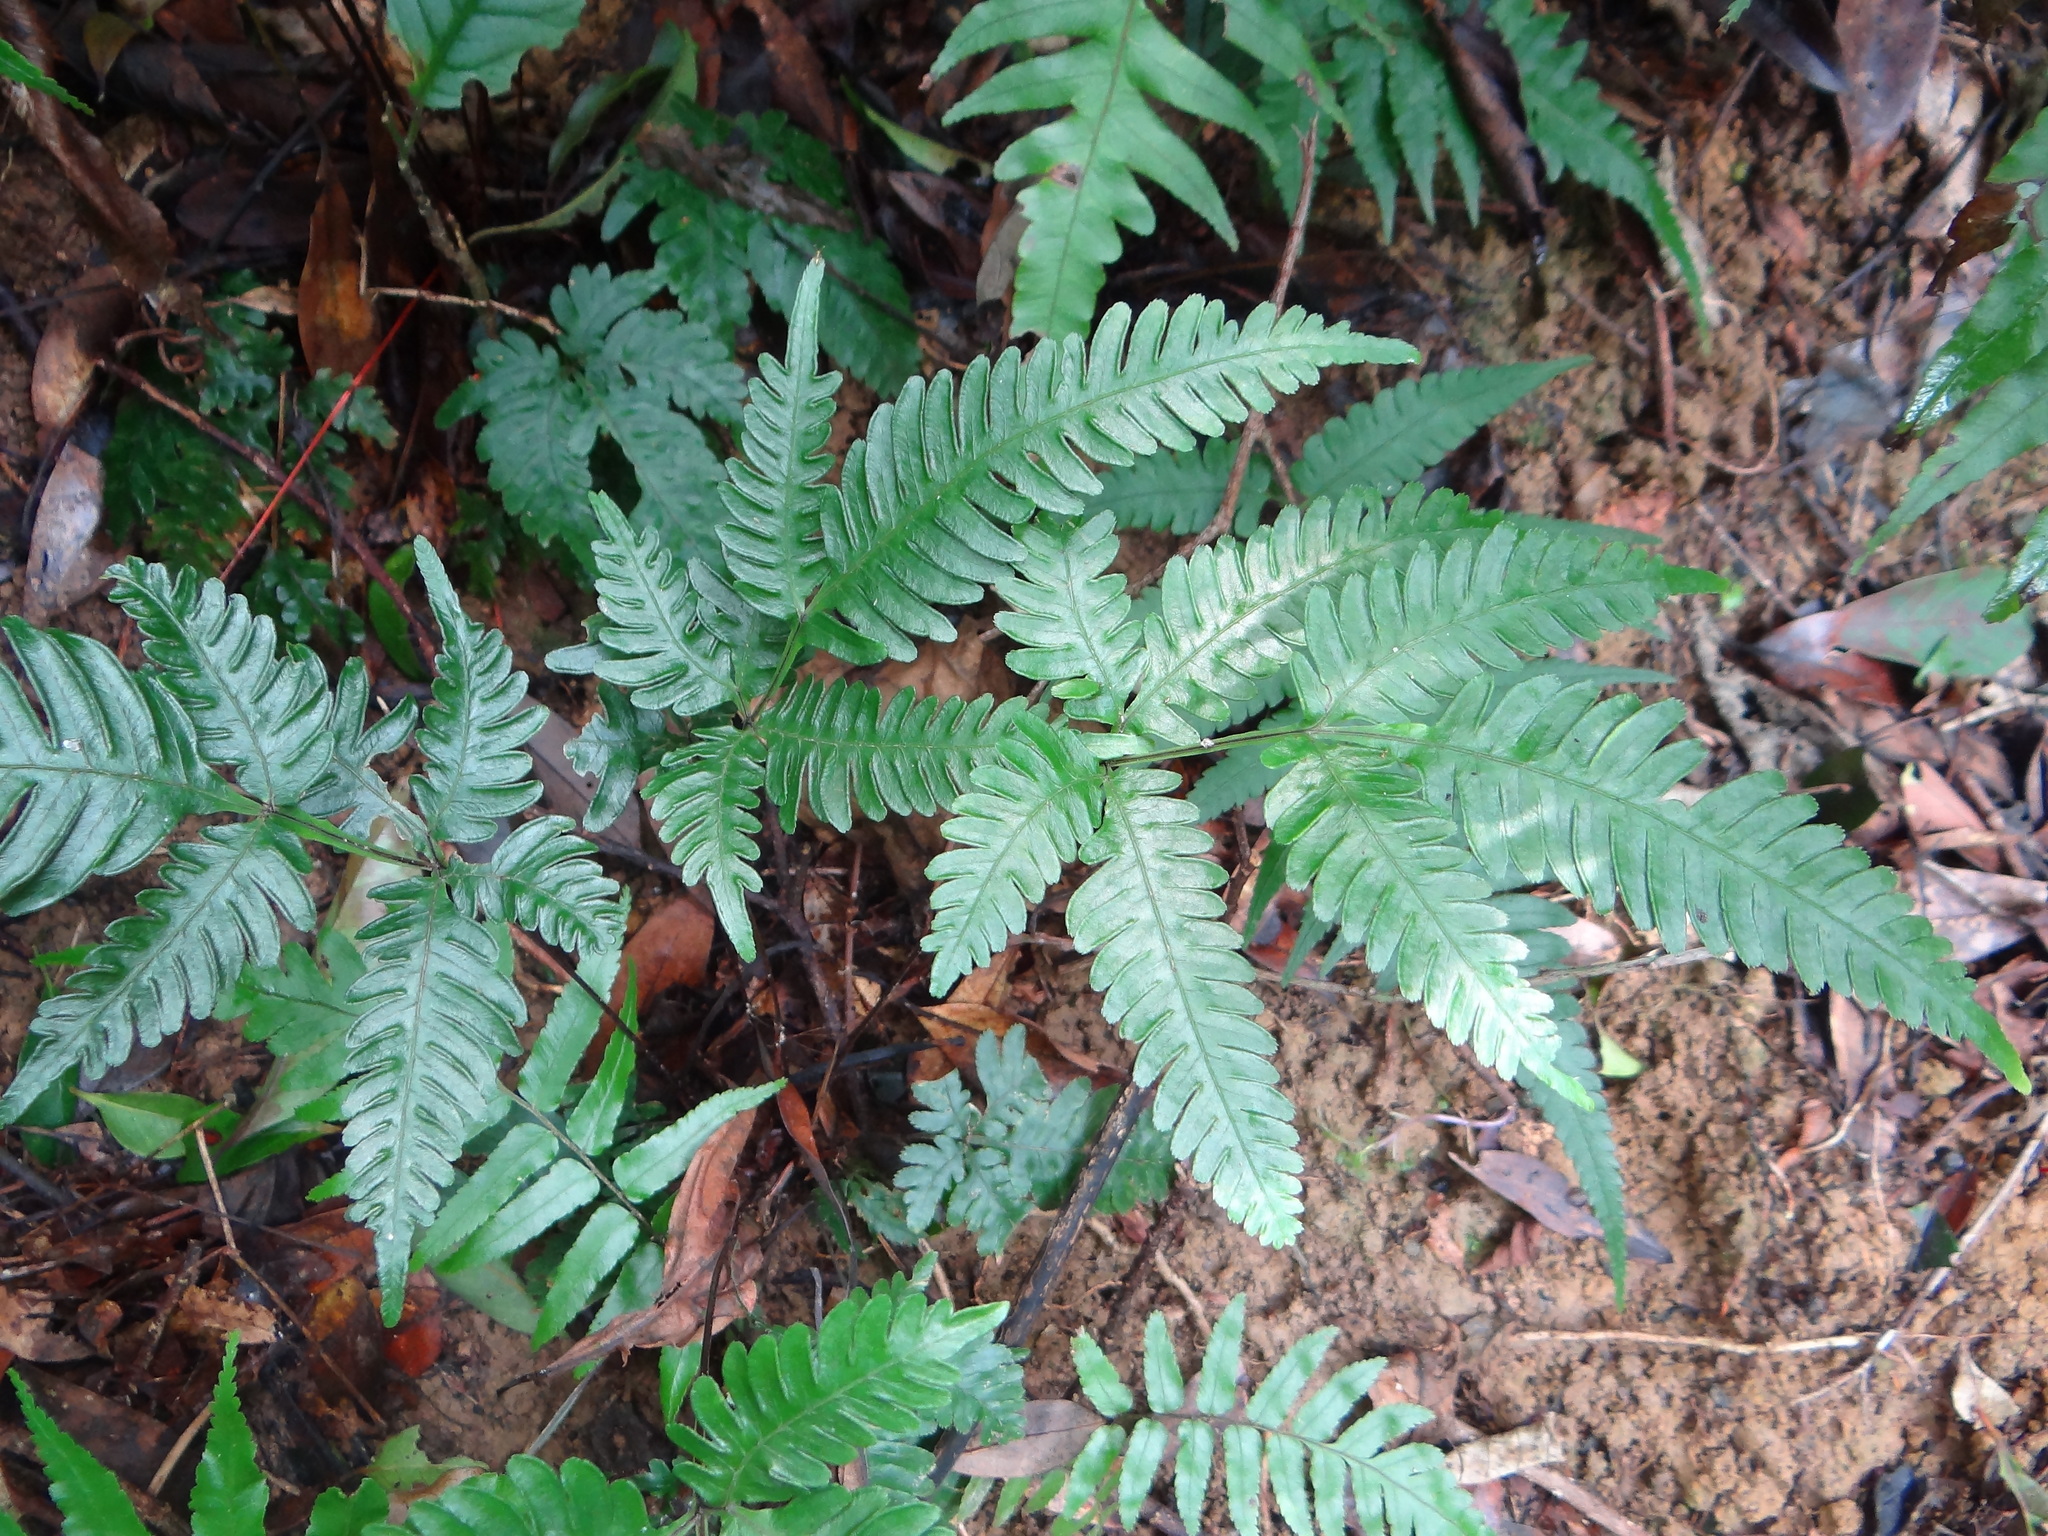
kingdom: Plantae
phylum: Tracheophyta
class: Polypodiopsida
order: Polypodiales
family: Pteridaceae
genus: Pteris
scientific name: Pteris grevilleana
